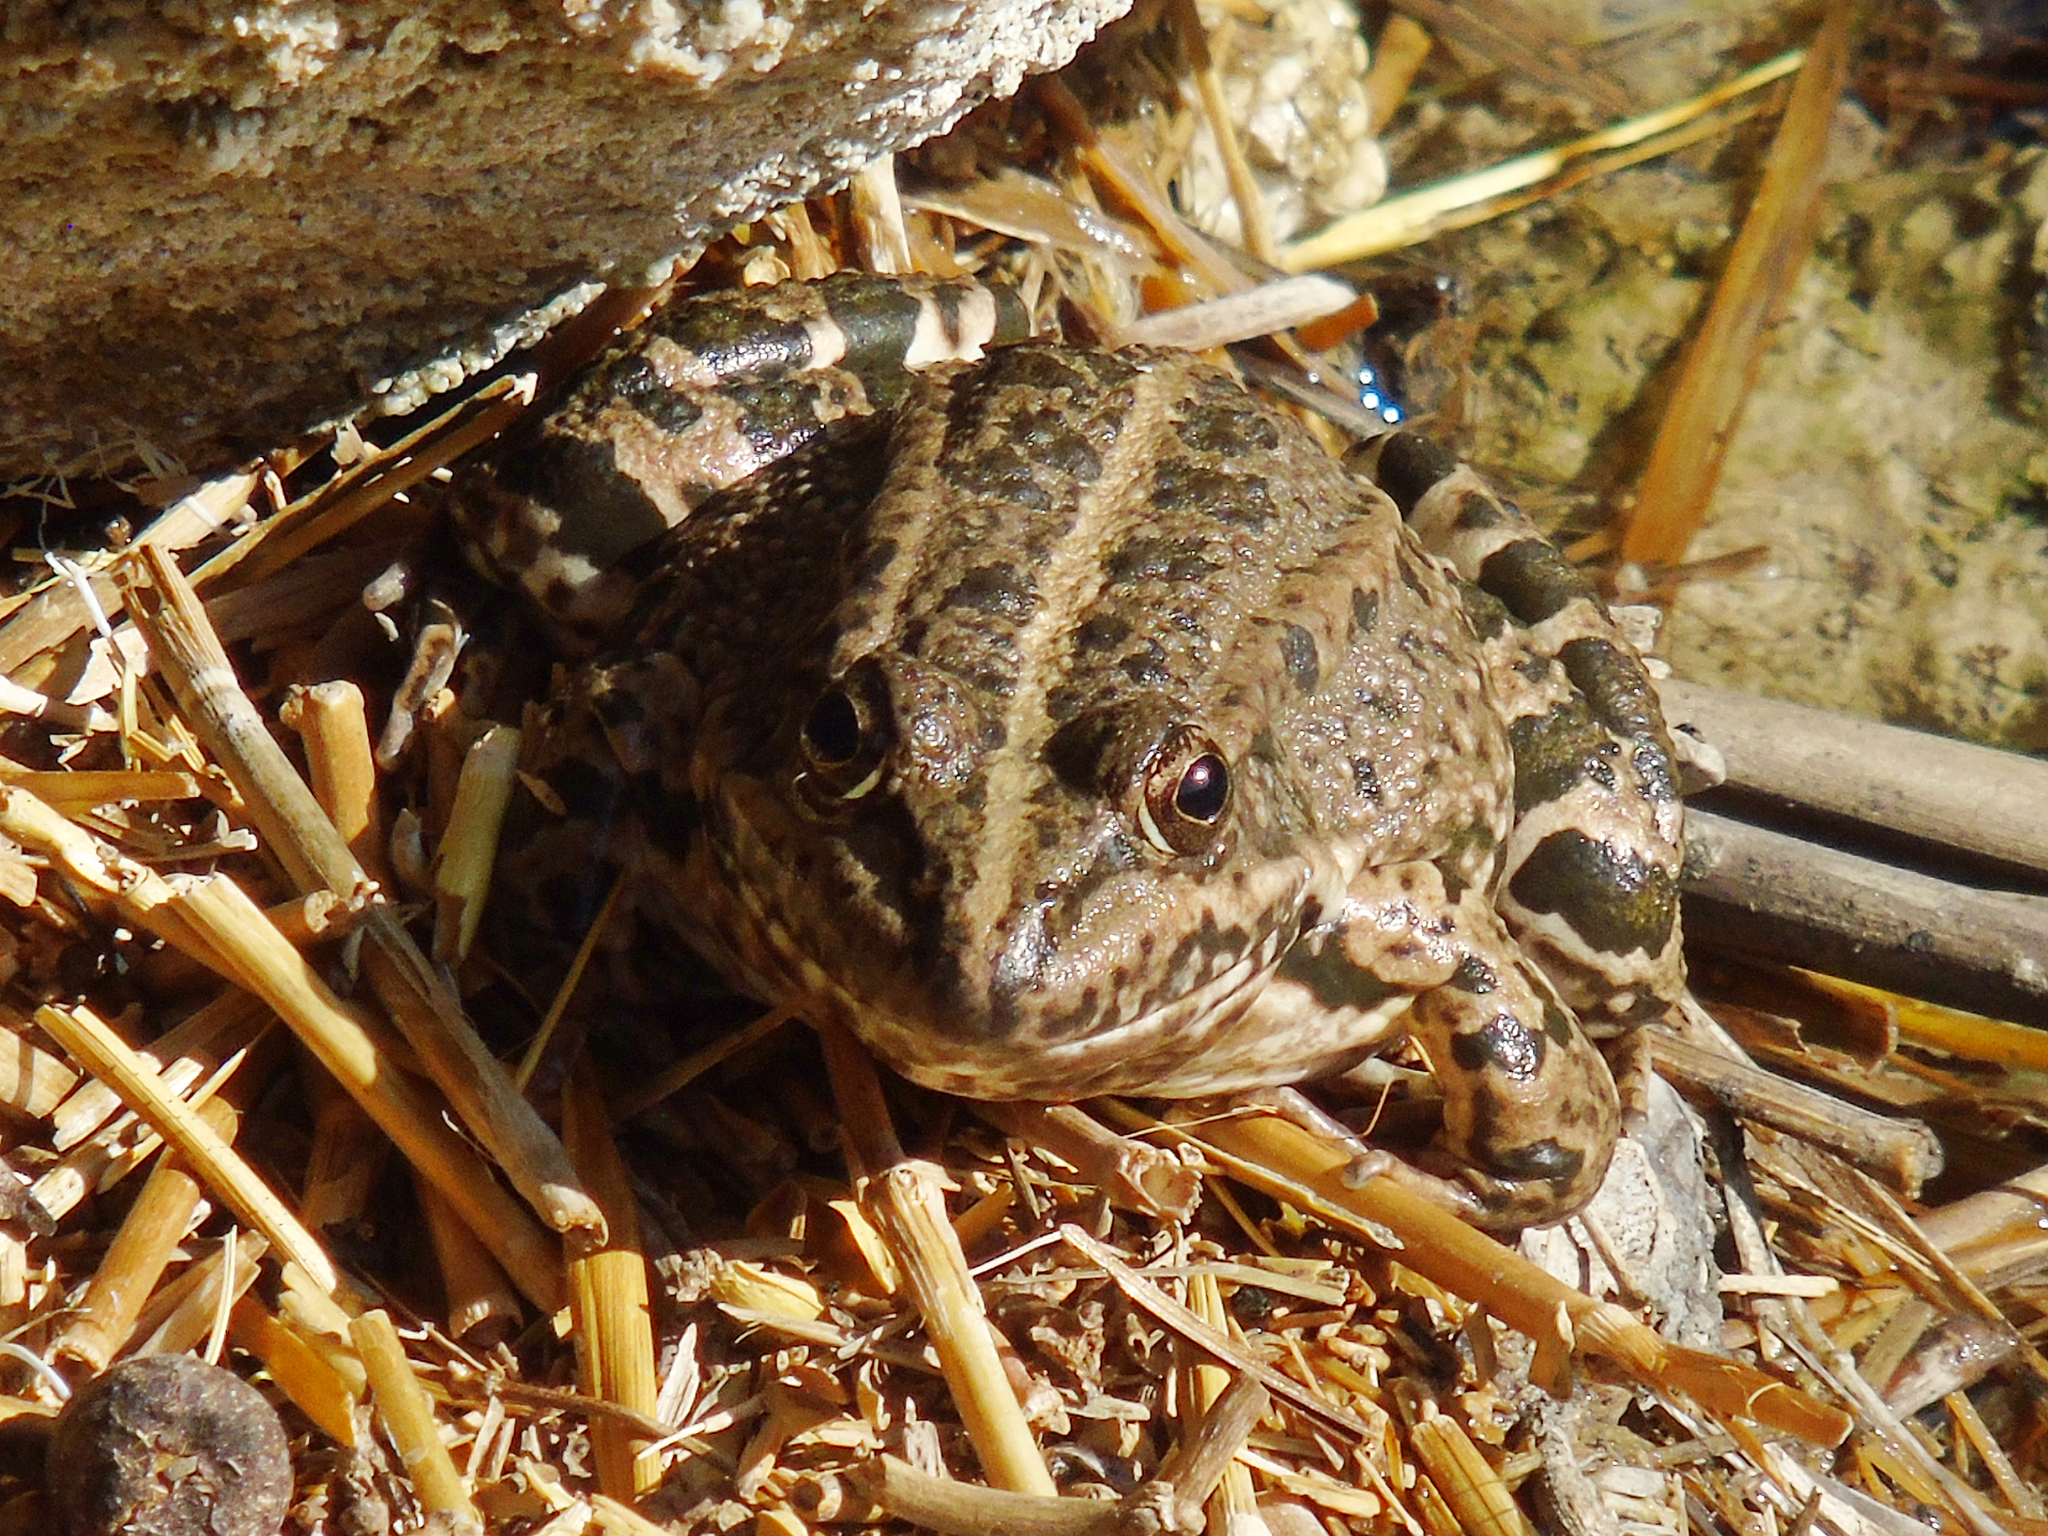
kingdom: Animalia
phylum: Chordata
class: Amphibia
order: Anura
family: Ranidae
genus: Pelophylax
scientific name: Pelophylax ridibundus
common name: Marsh frog
